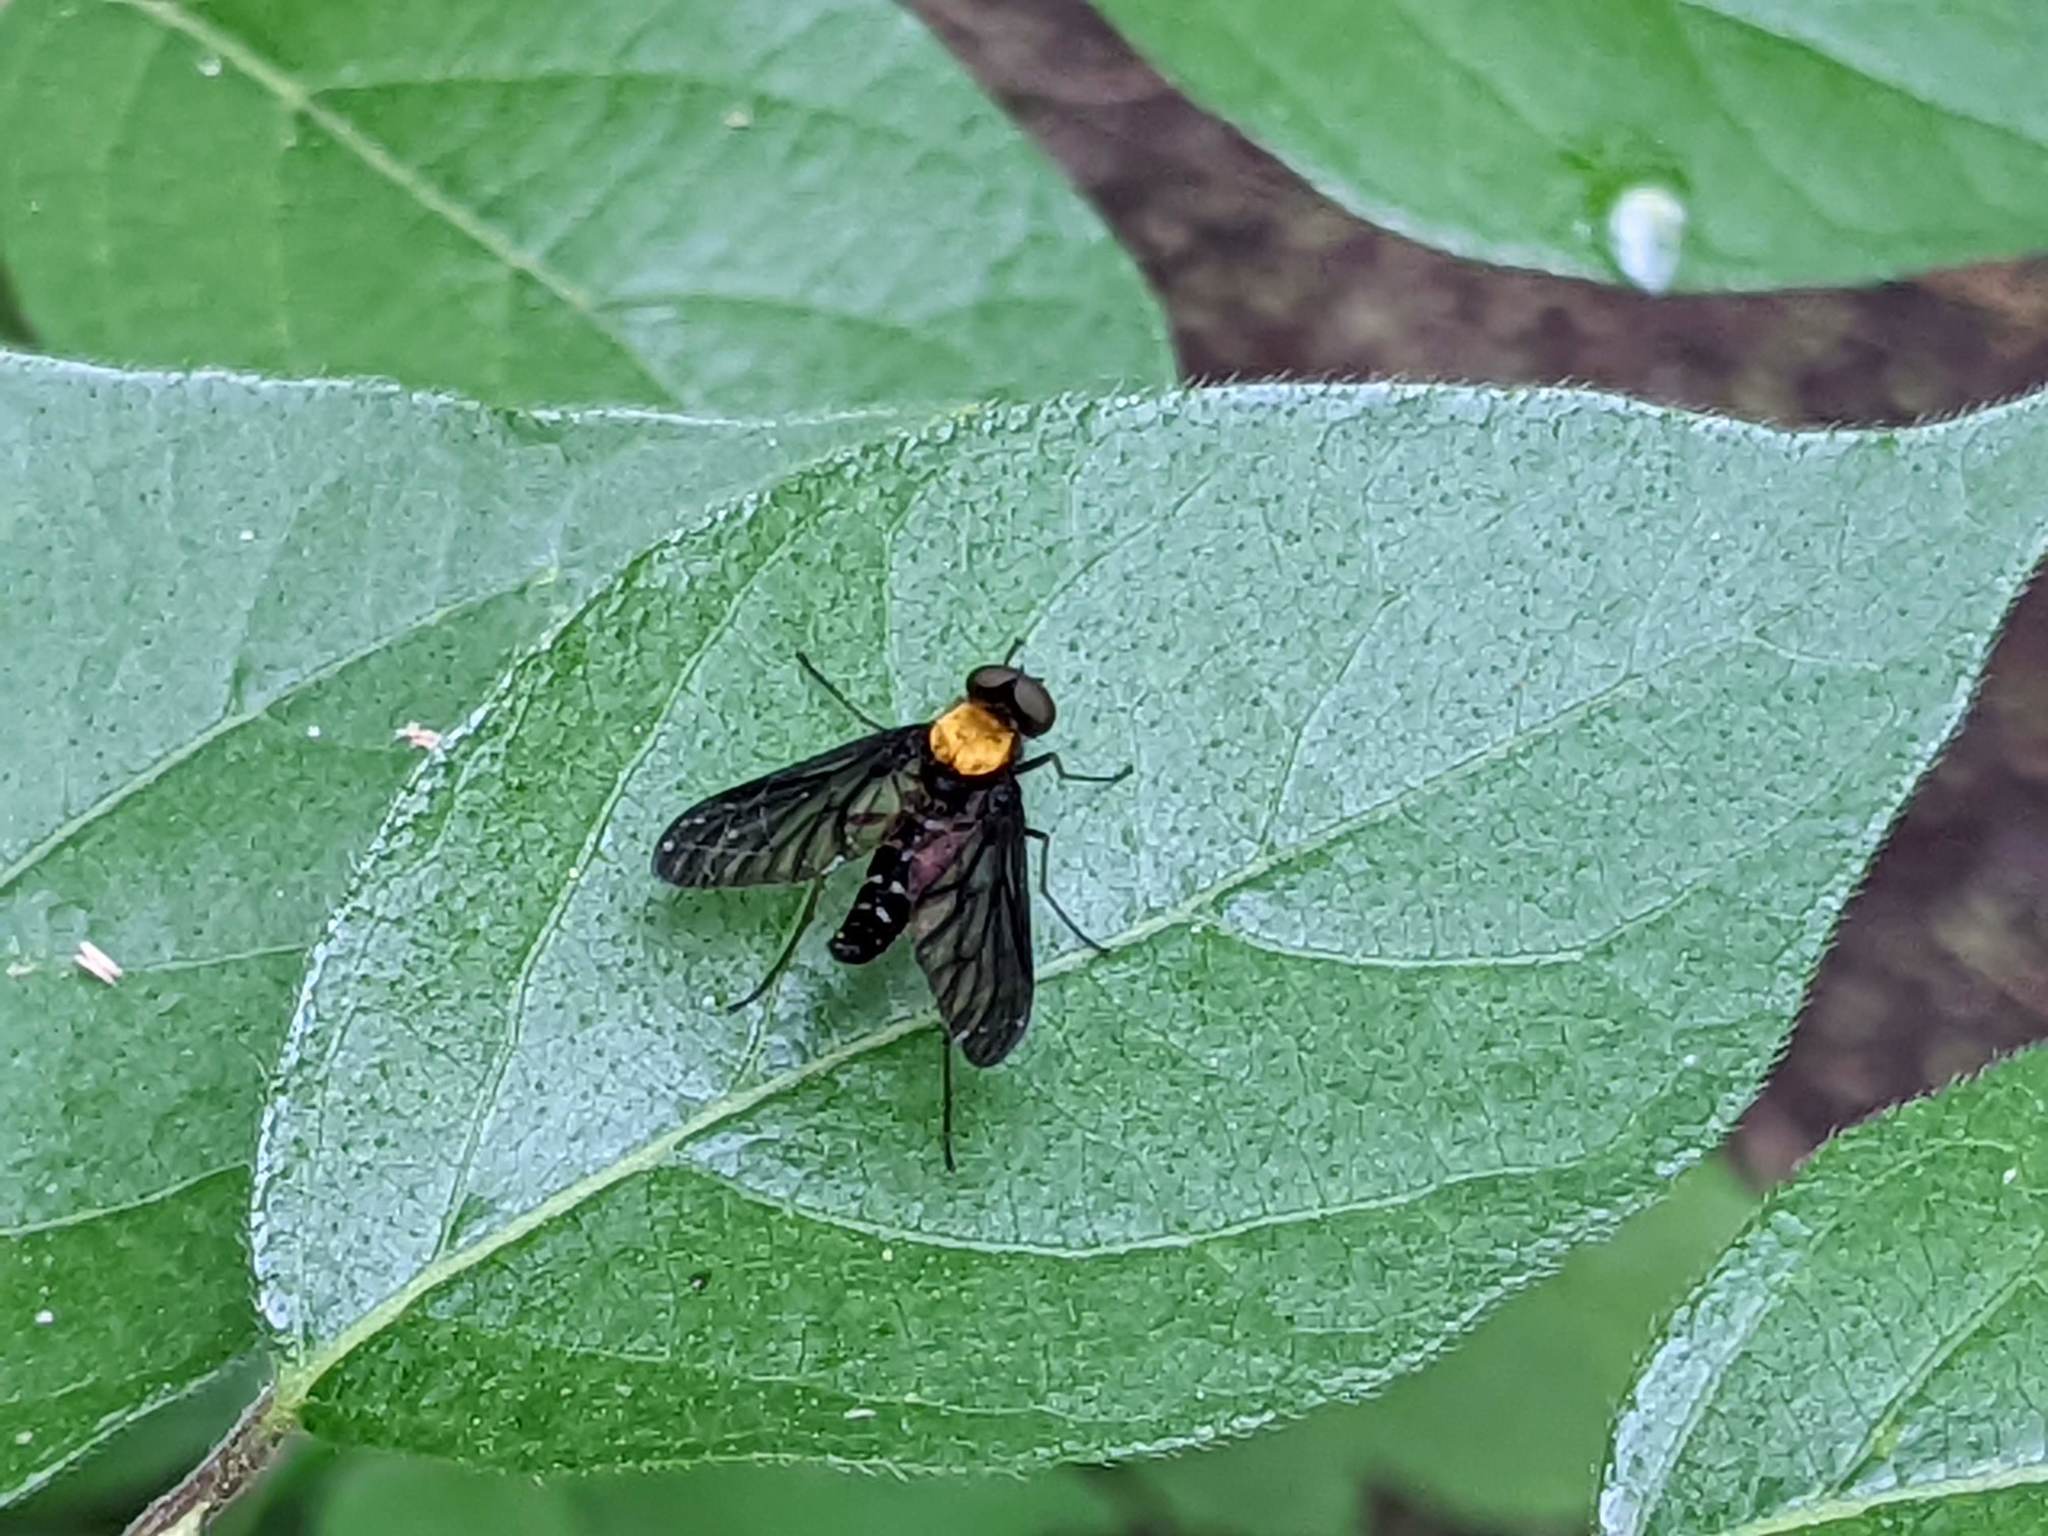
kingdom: Animalia
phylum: Arthropoda
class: Insecta
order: Diptera
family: Rhagionidae
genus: Chrysopilus
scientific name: Chrysopilus thoracicus
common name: Golden-backed snipe fly
